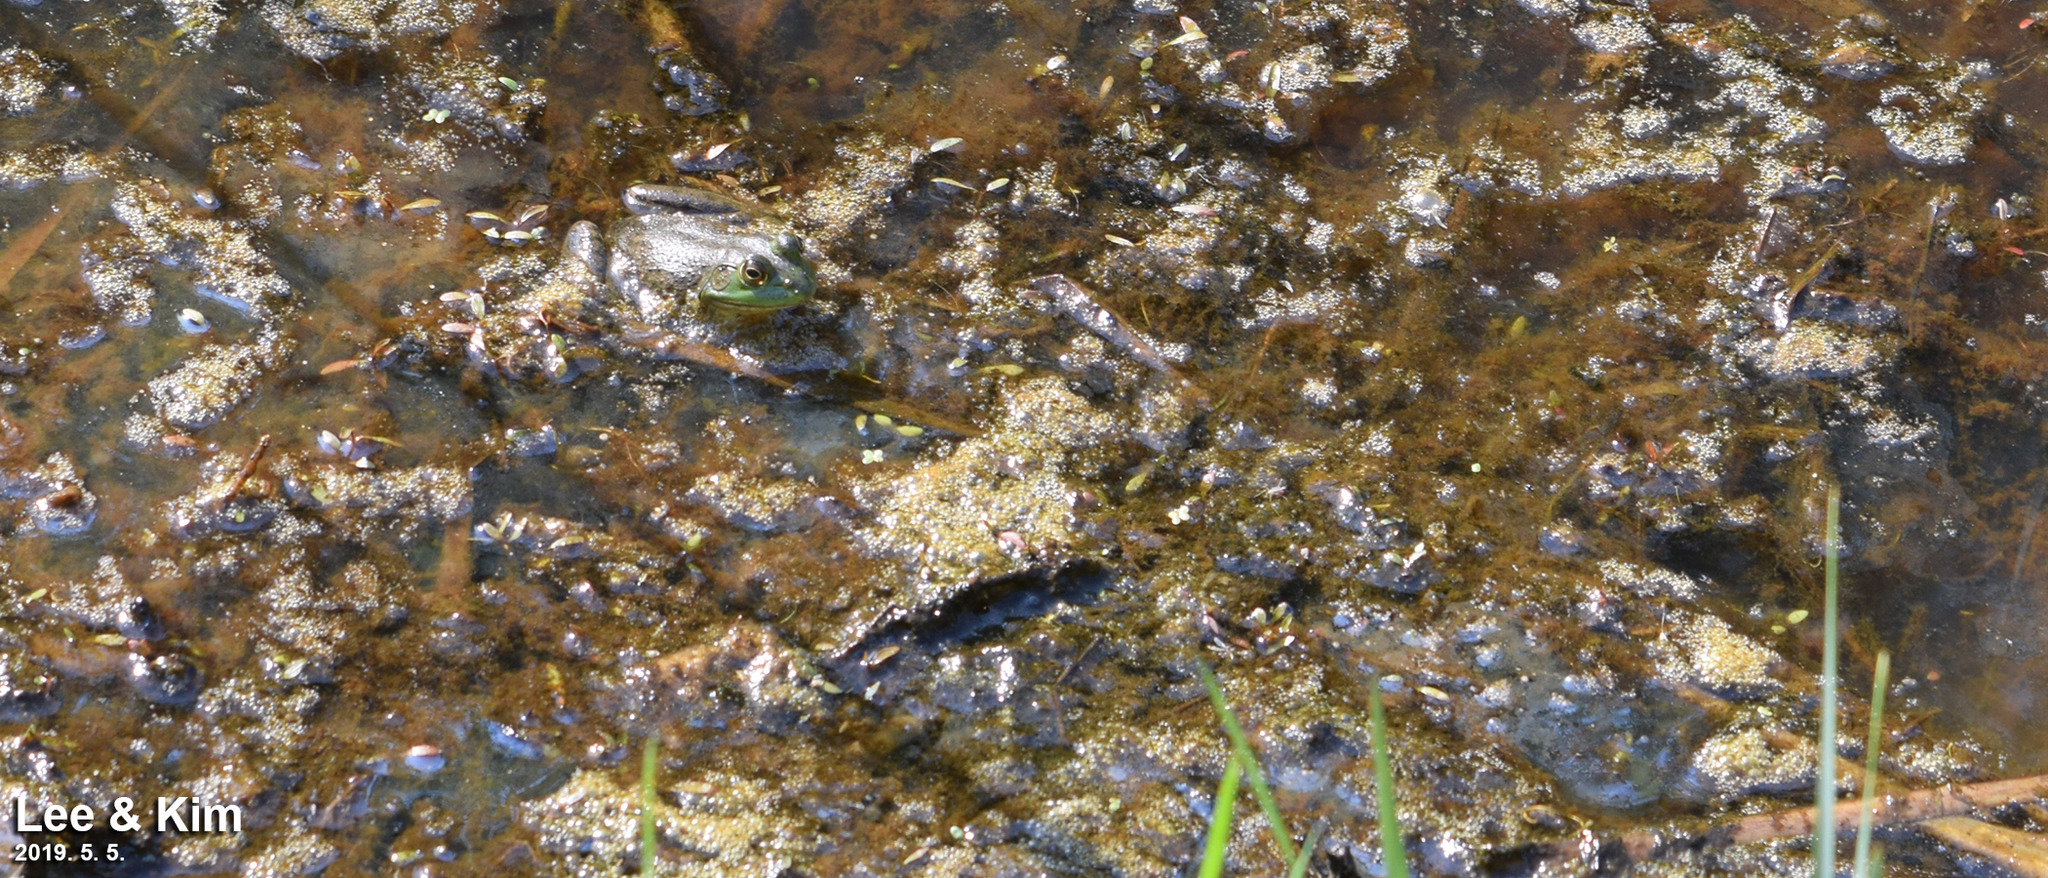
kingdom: Animalia
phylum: Chordata
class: Amphibia
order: Anura
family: Ranidae
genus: Lithobates
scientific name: Lithobates catesbeianus
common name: American bullfrog
